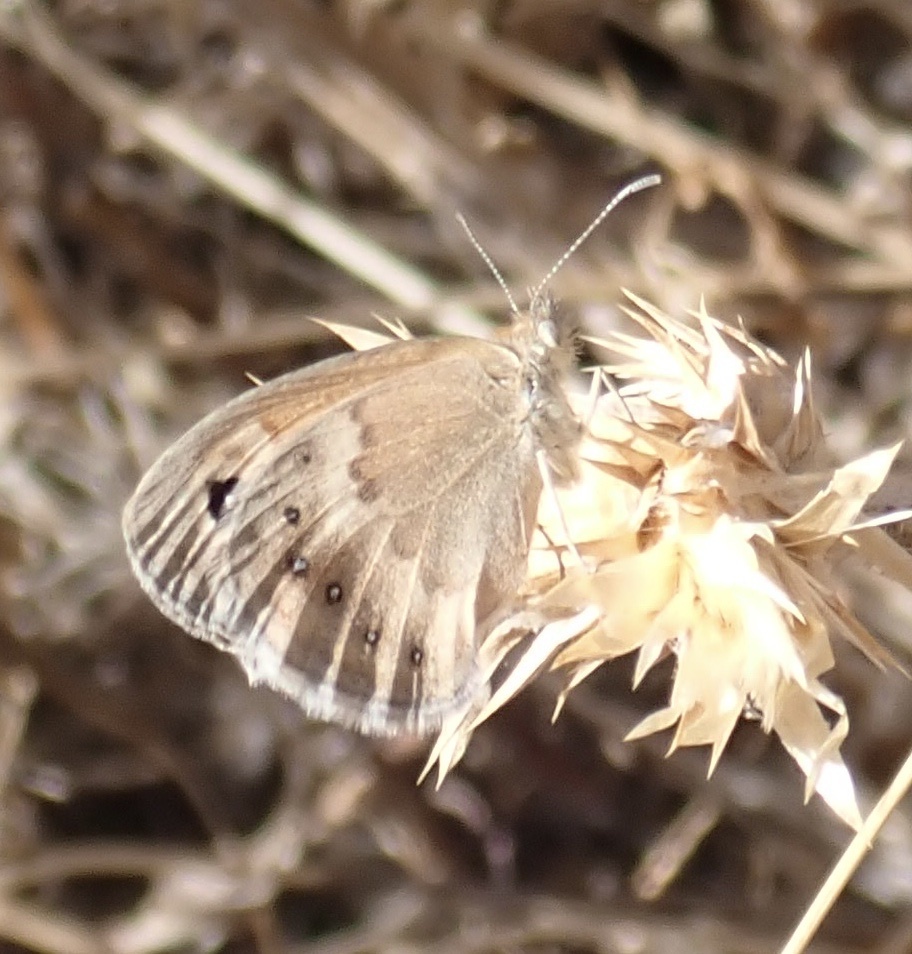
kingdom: Animalia
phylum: Arthropoda
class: Insecta
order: Lepidoptera
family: Nymphalidae
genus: Coenonympha
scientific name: Coenonympha pamphilus
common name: Small heath
